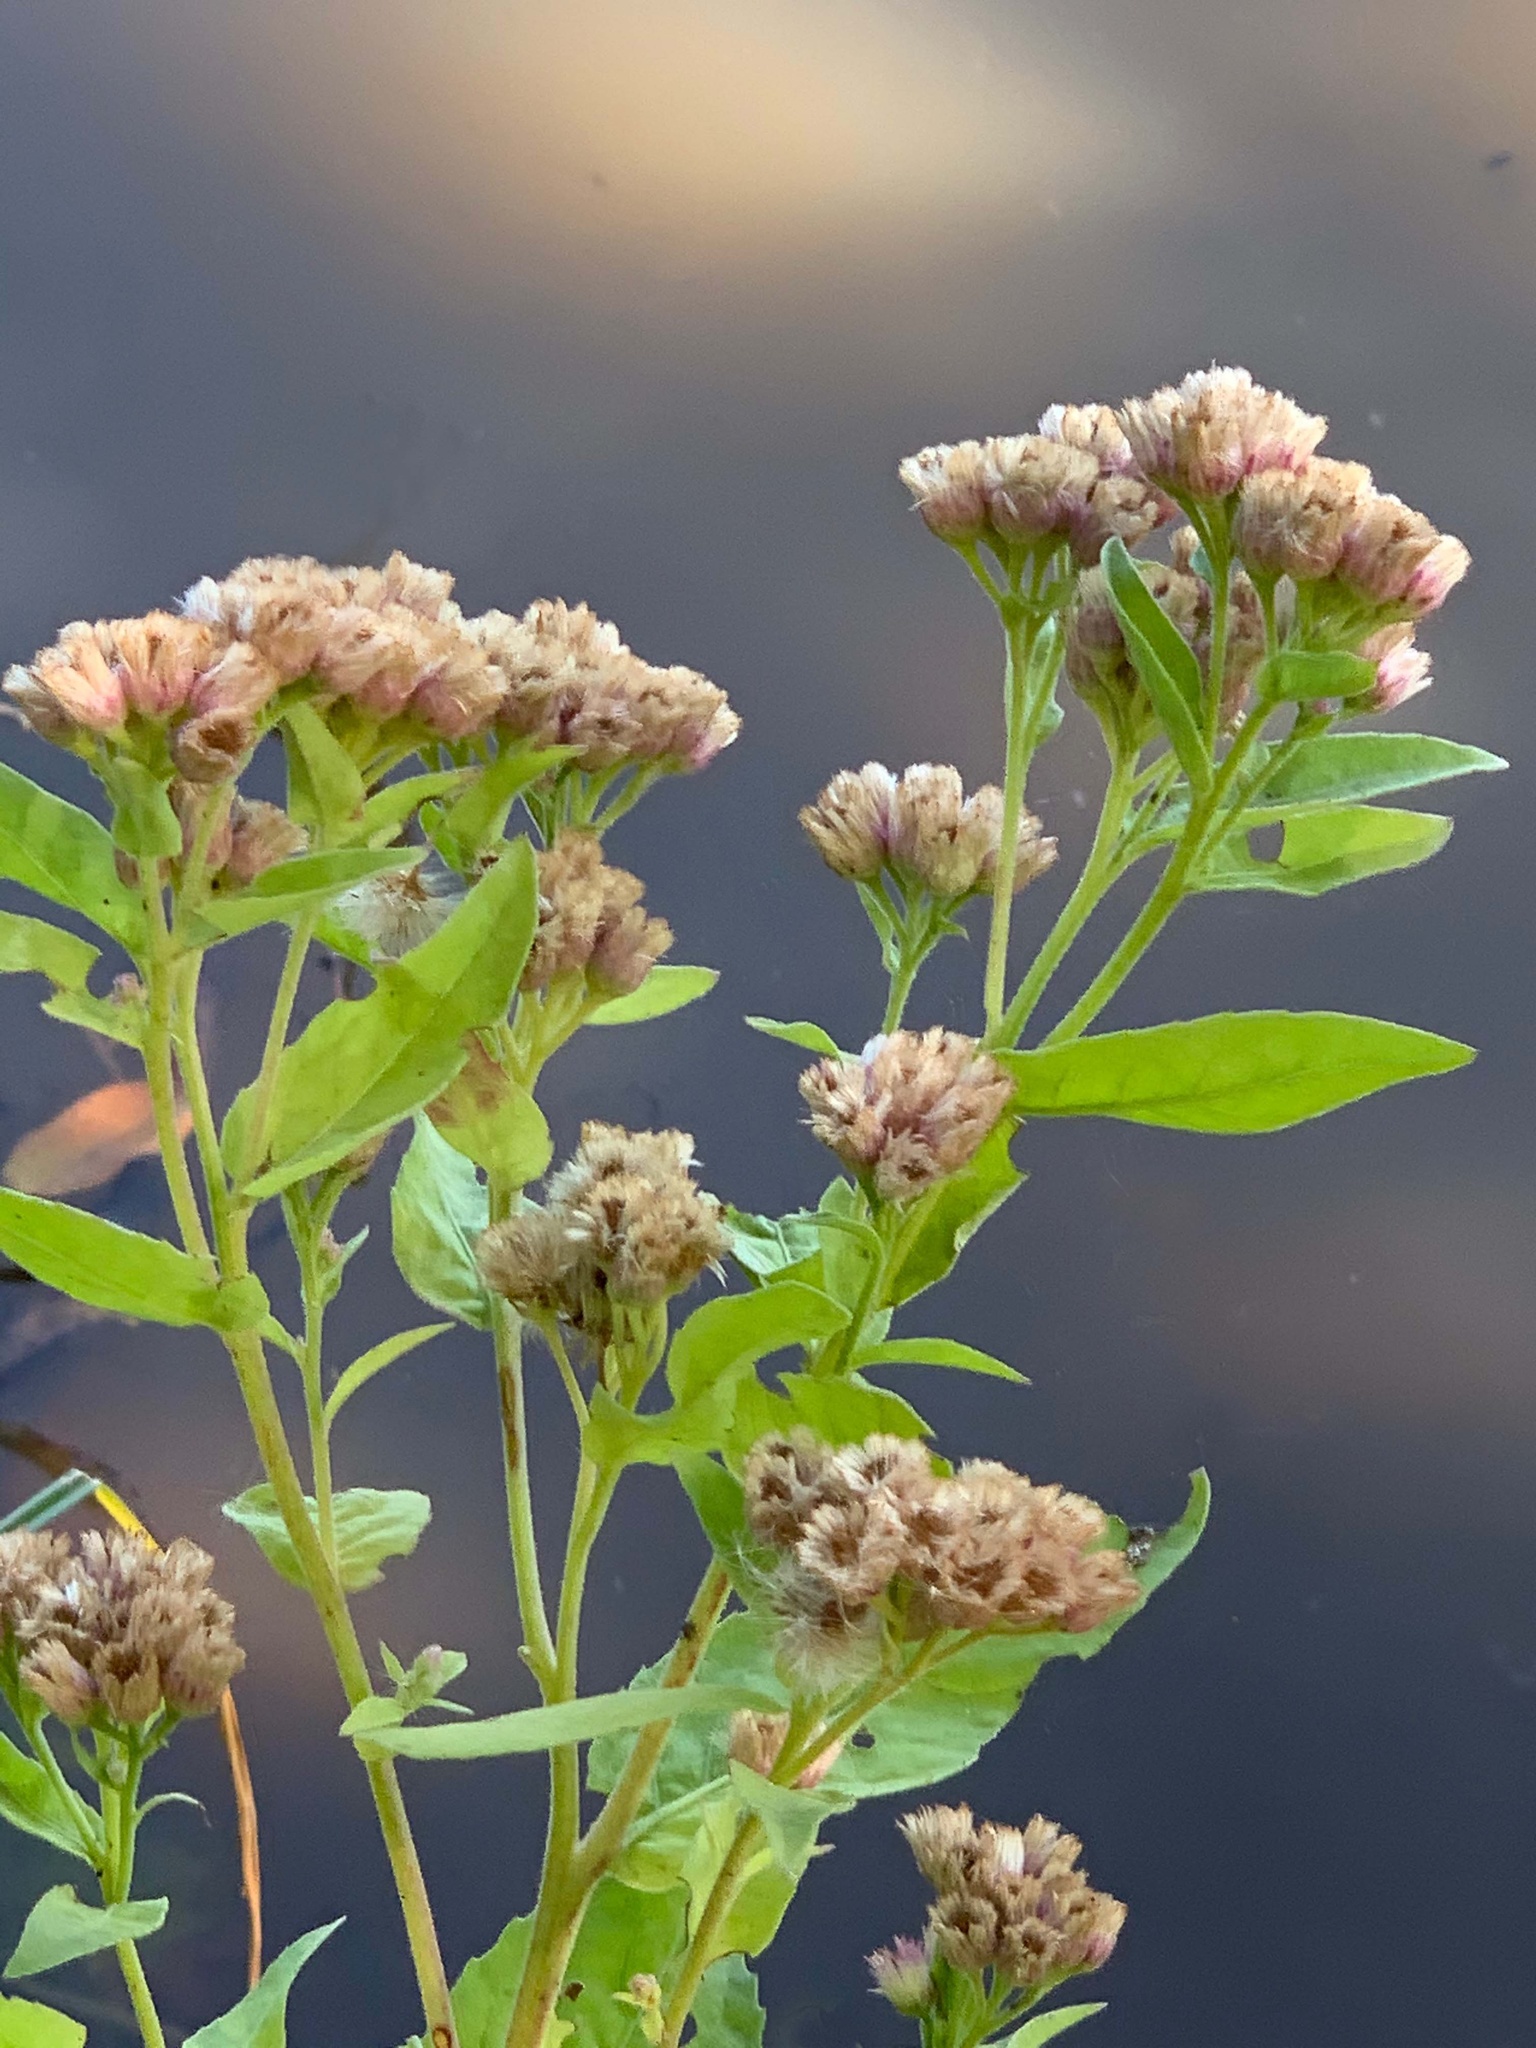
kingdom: Plantae
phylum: Tracheophyta
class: Magnoliopsida
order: Asterales
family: Asteraceae
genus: Pluchea
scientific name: Pluchea odorata
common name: Saltmarsh fleabane
